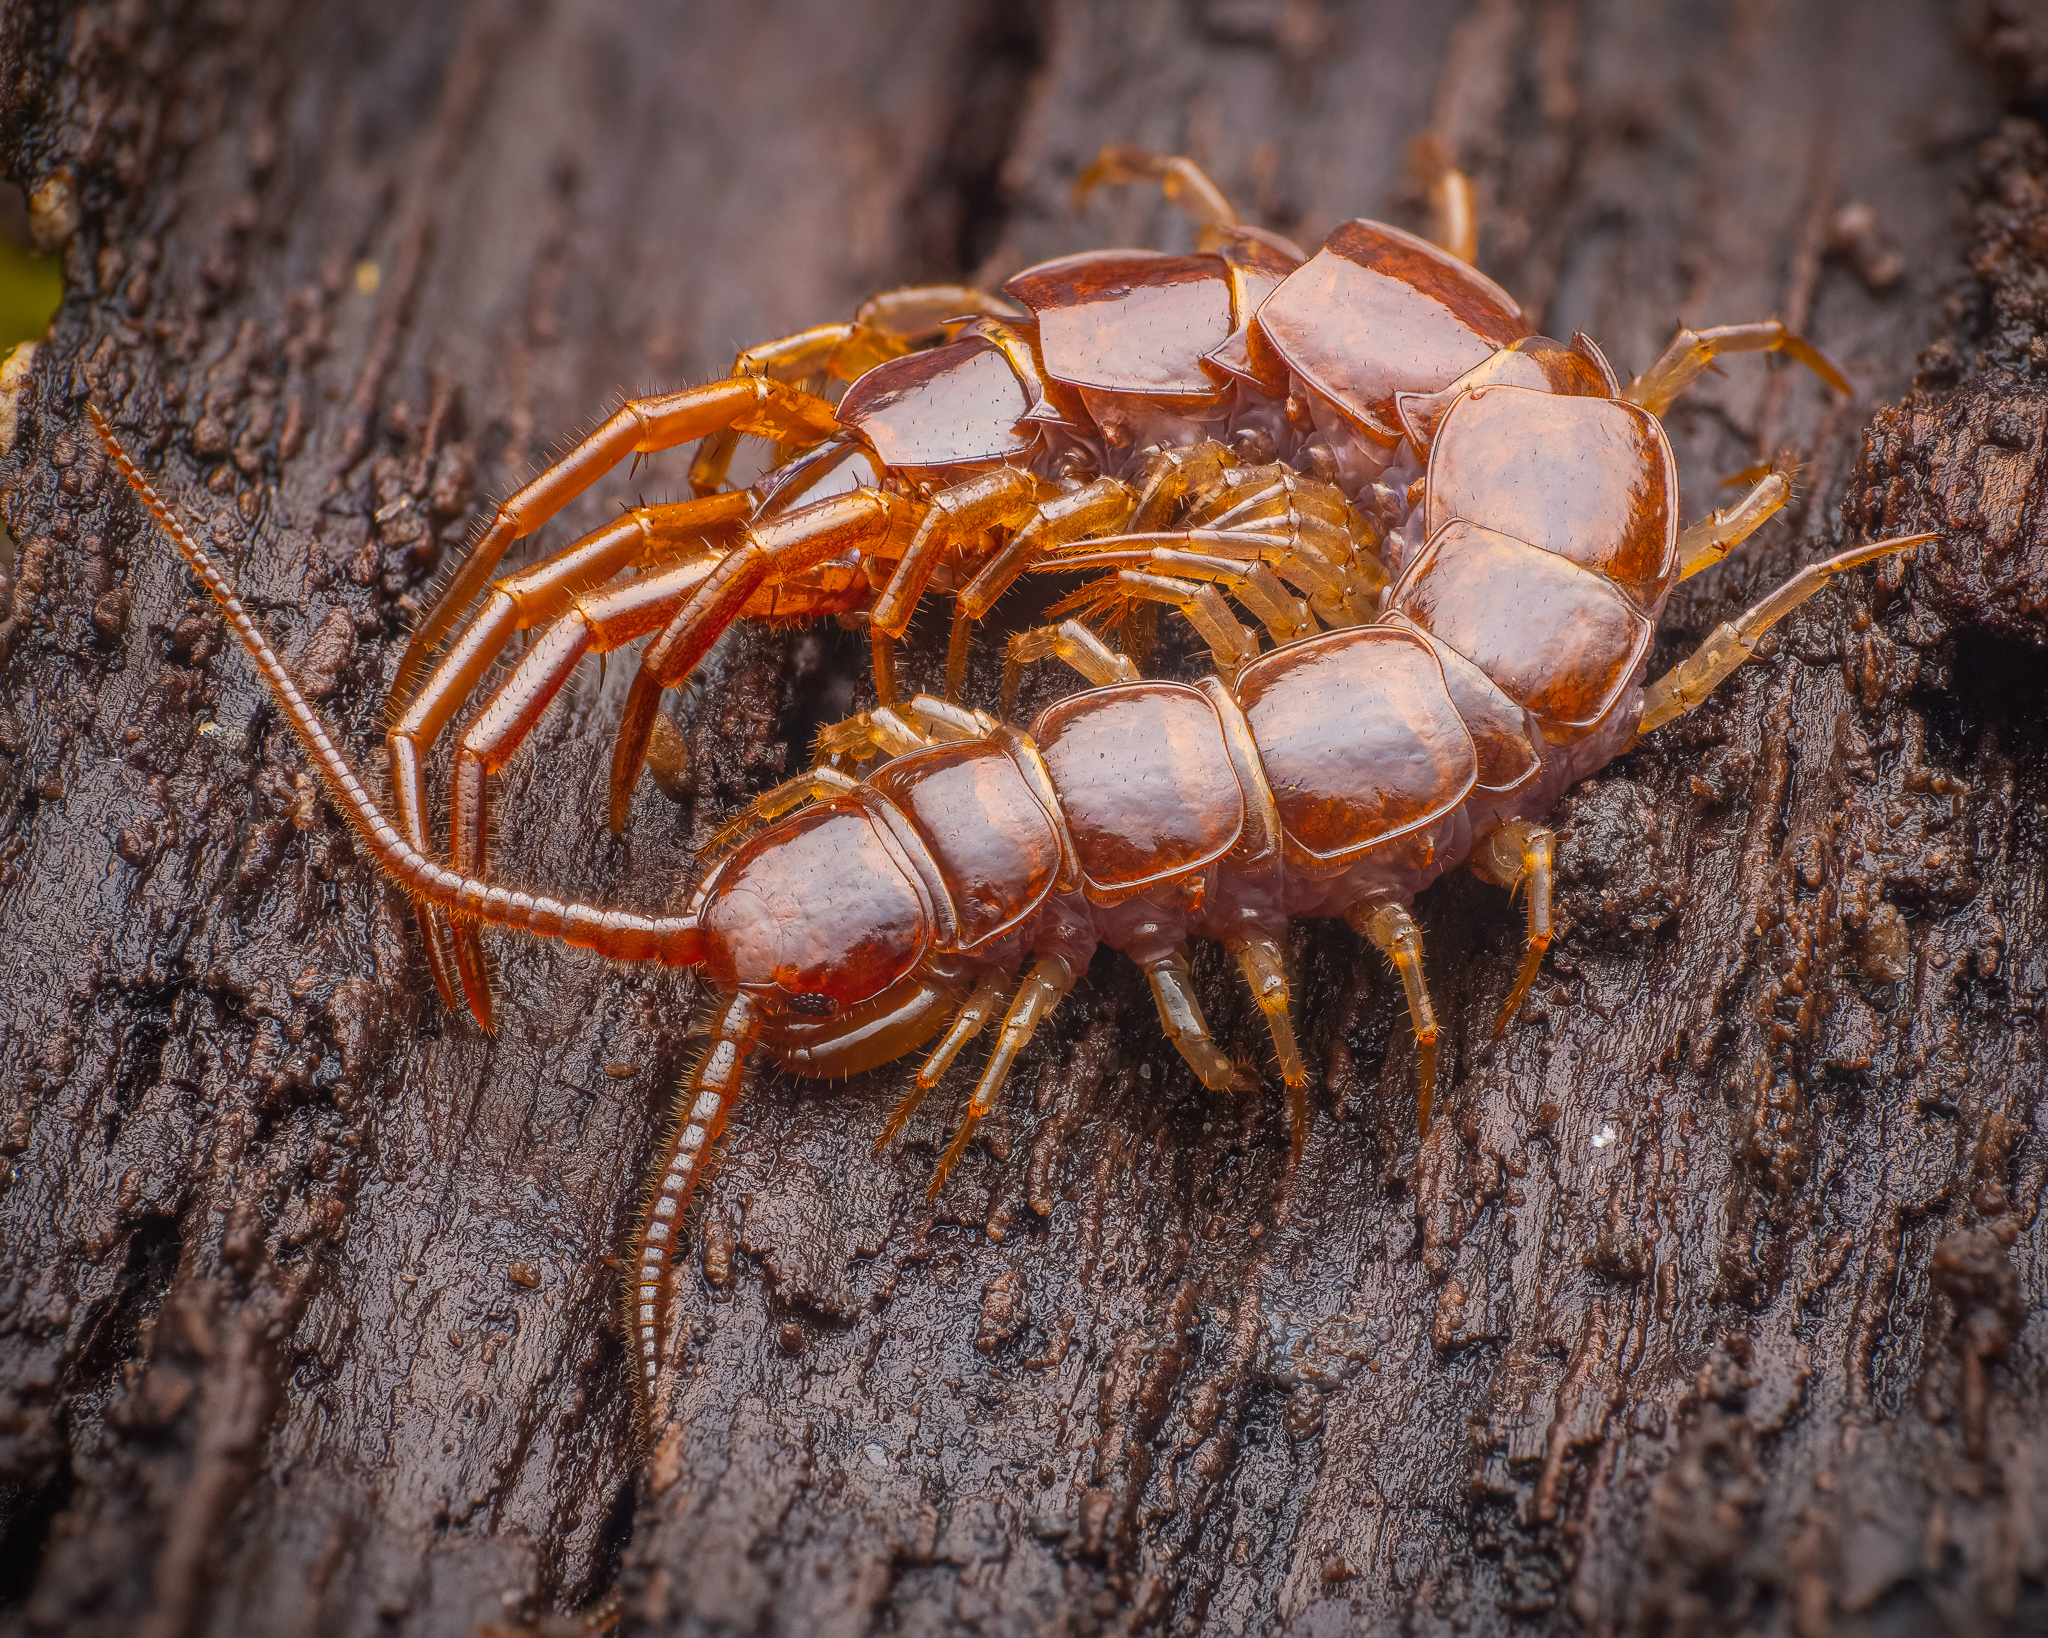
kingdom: Animalia
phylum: Arthropoda
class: Chilopoda
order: Lithobiomorpha
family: Lithobiidae
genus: Lithobius
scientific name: Lithobius forficatus
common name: Centipede
